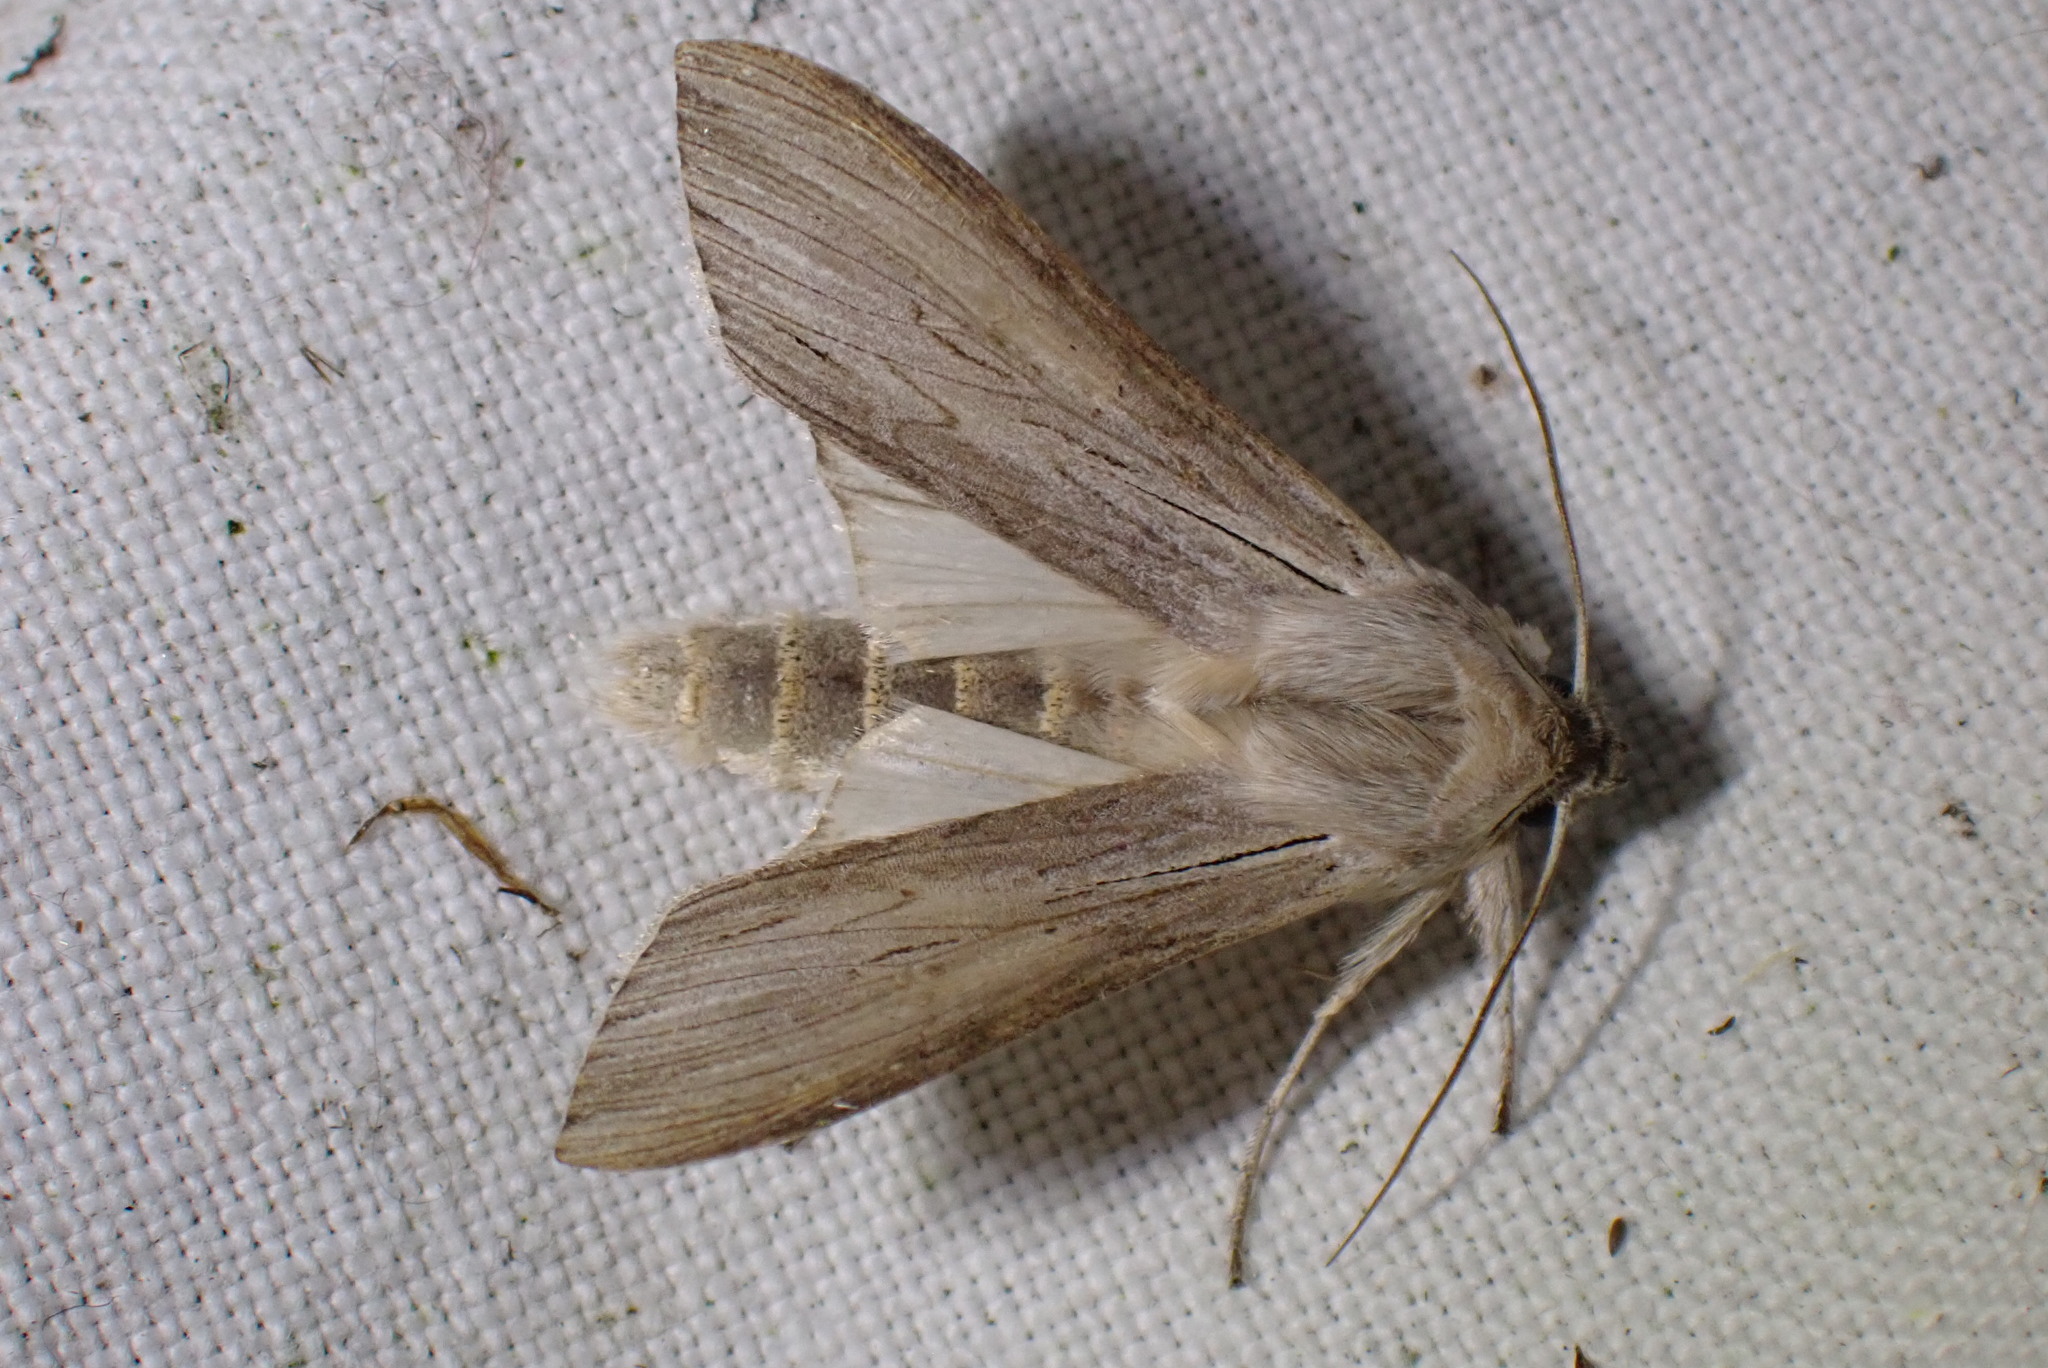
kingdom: Animalia
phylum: Arthropoda
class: Insecta
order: Lepidoptera
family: Noctuidae
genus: Cucullia
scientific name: Cucullia umbratica
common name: Shark
